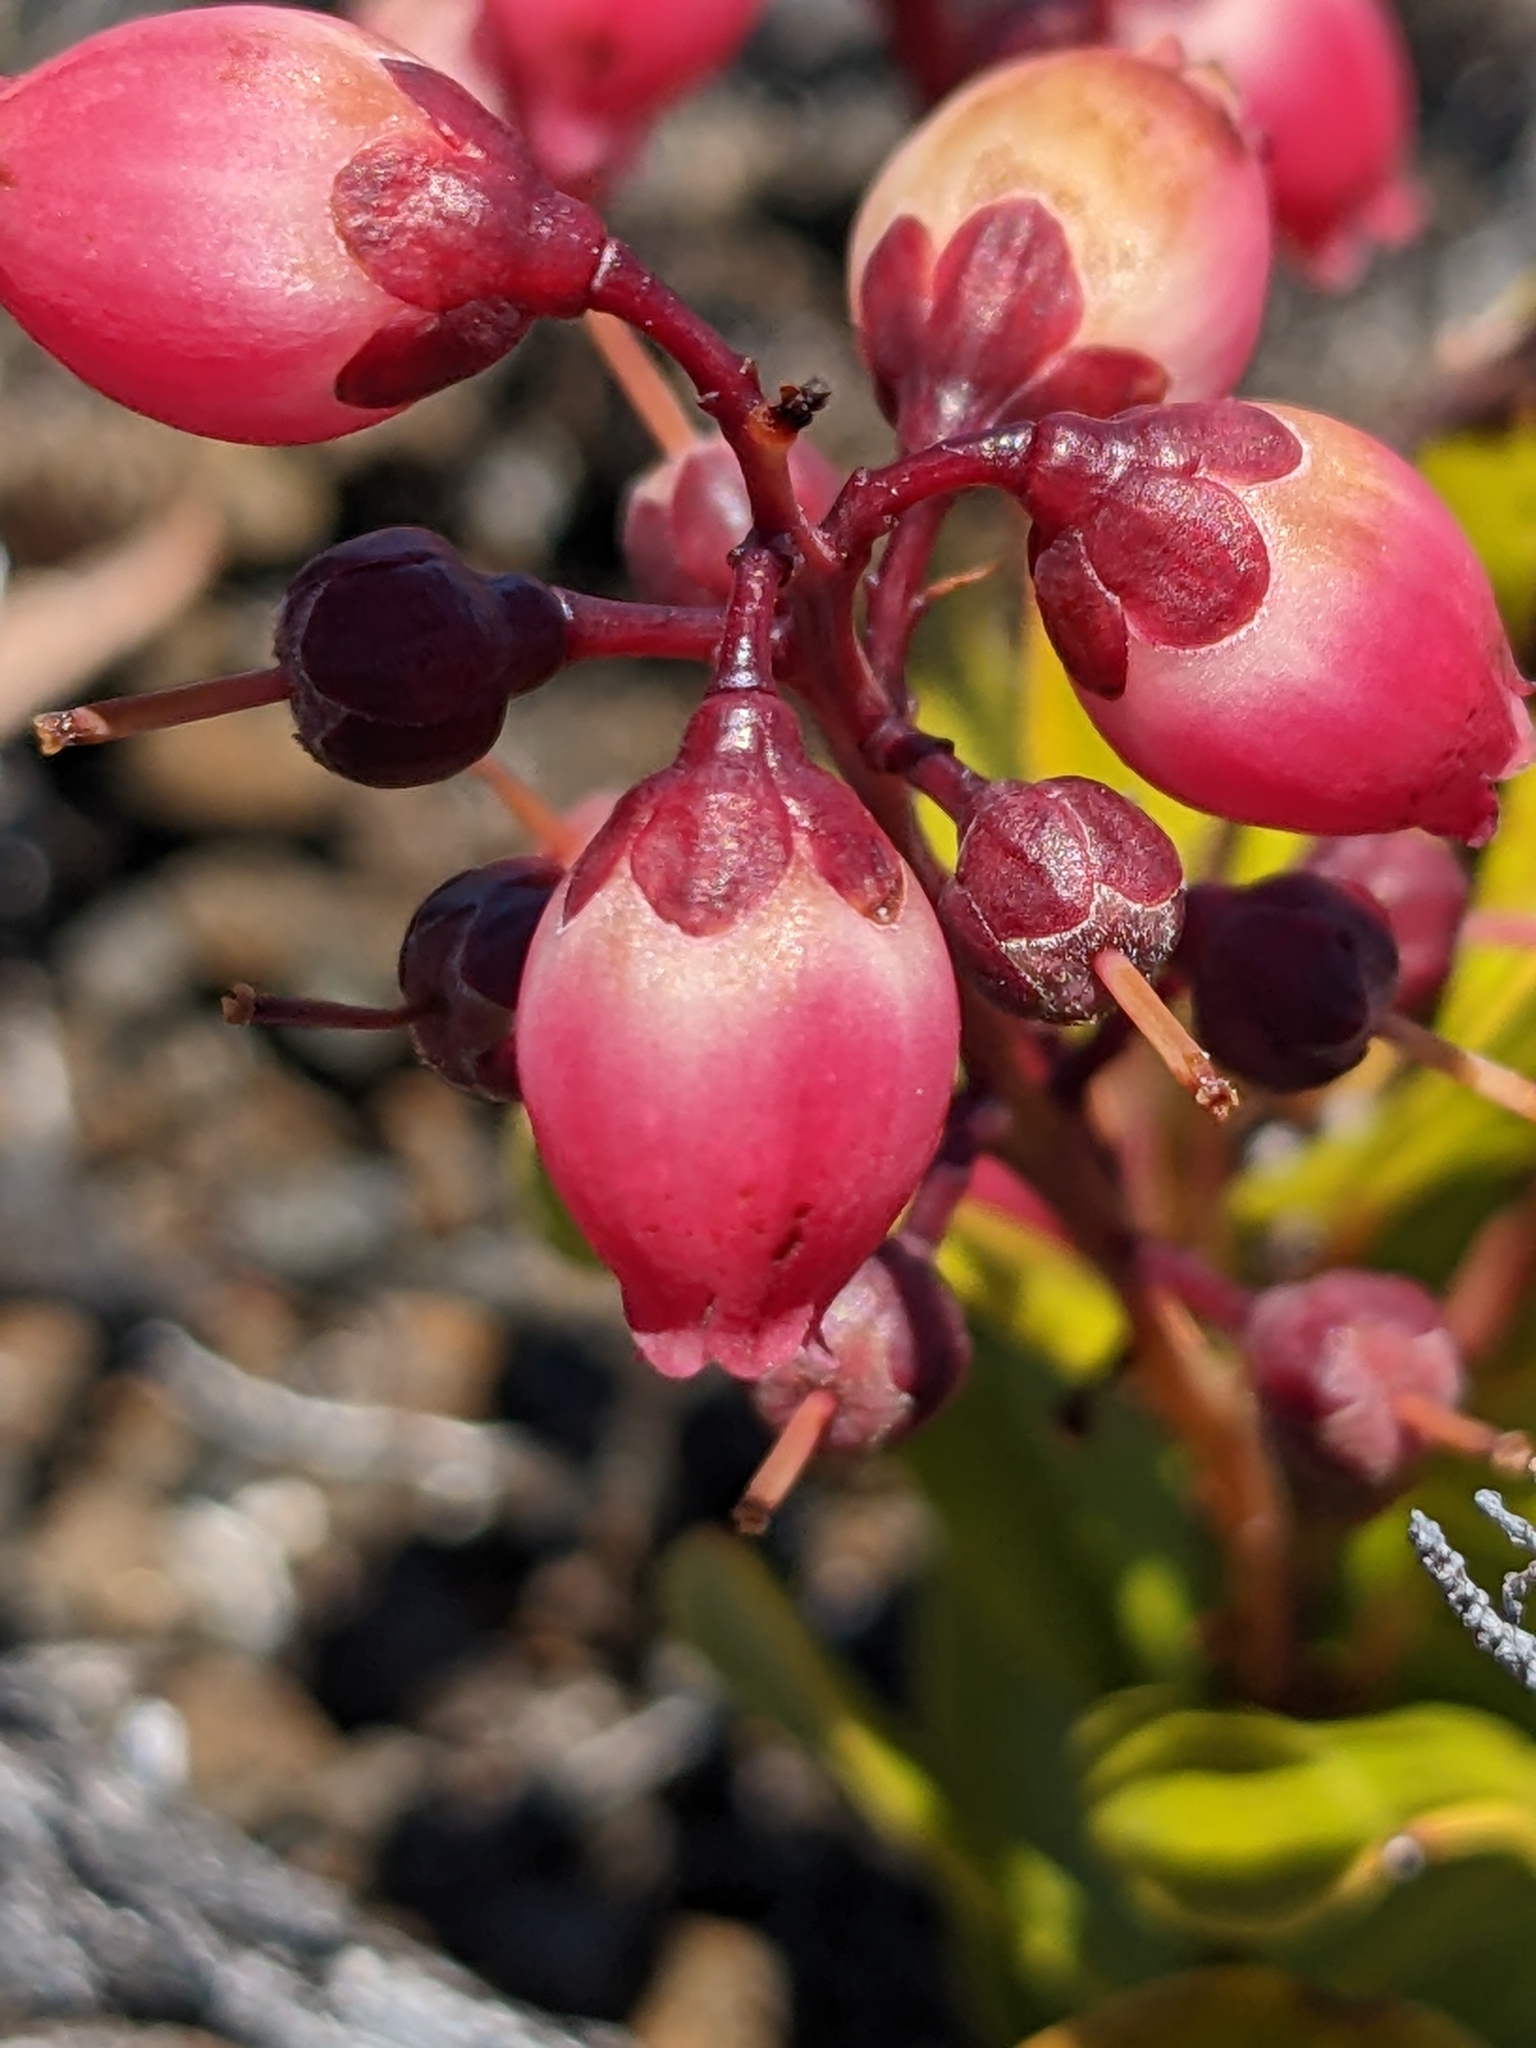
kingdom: Plantae
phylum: Tracheophyta
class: Magnoliopsida
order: Ericales
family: Ericaceae
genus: Agarista
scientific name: Agarista buxifolia
